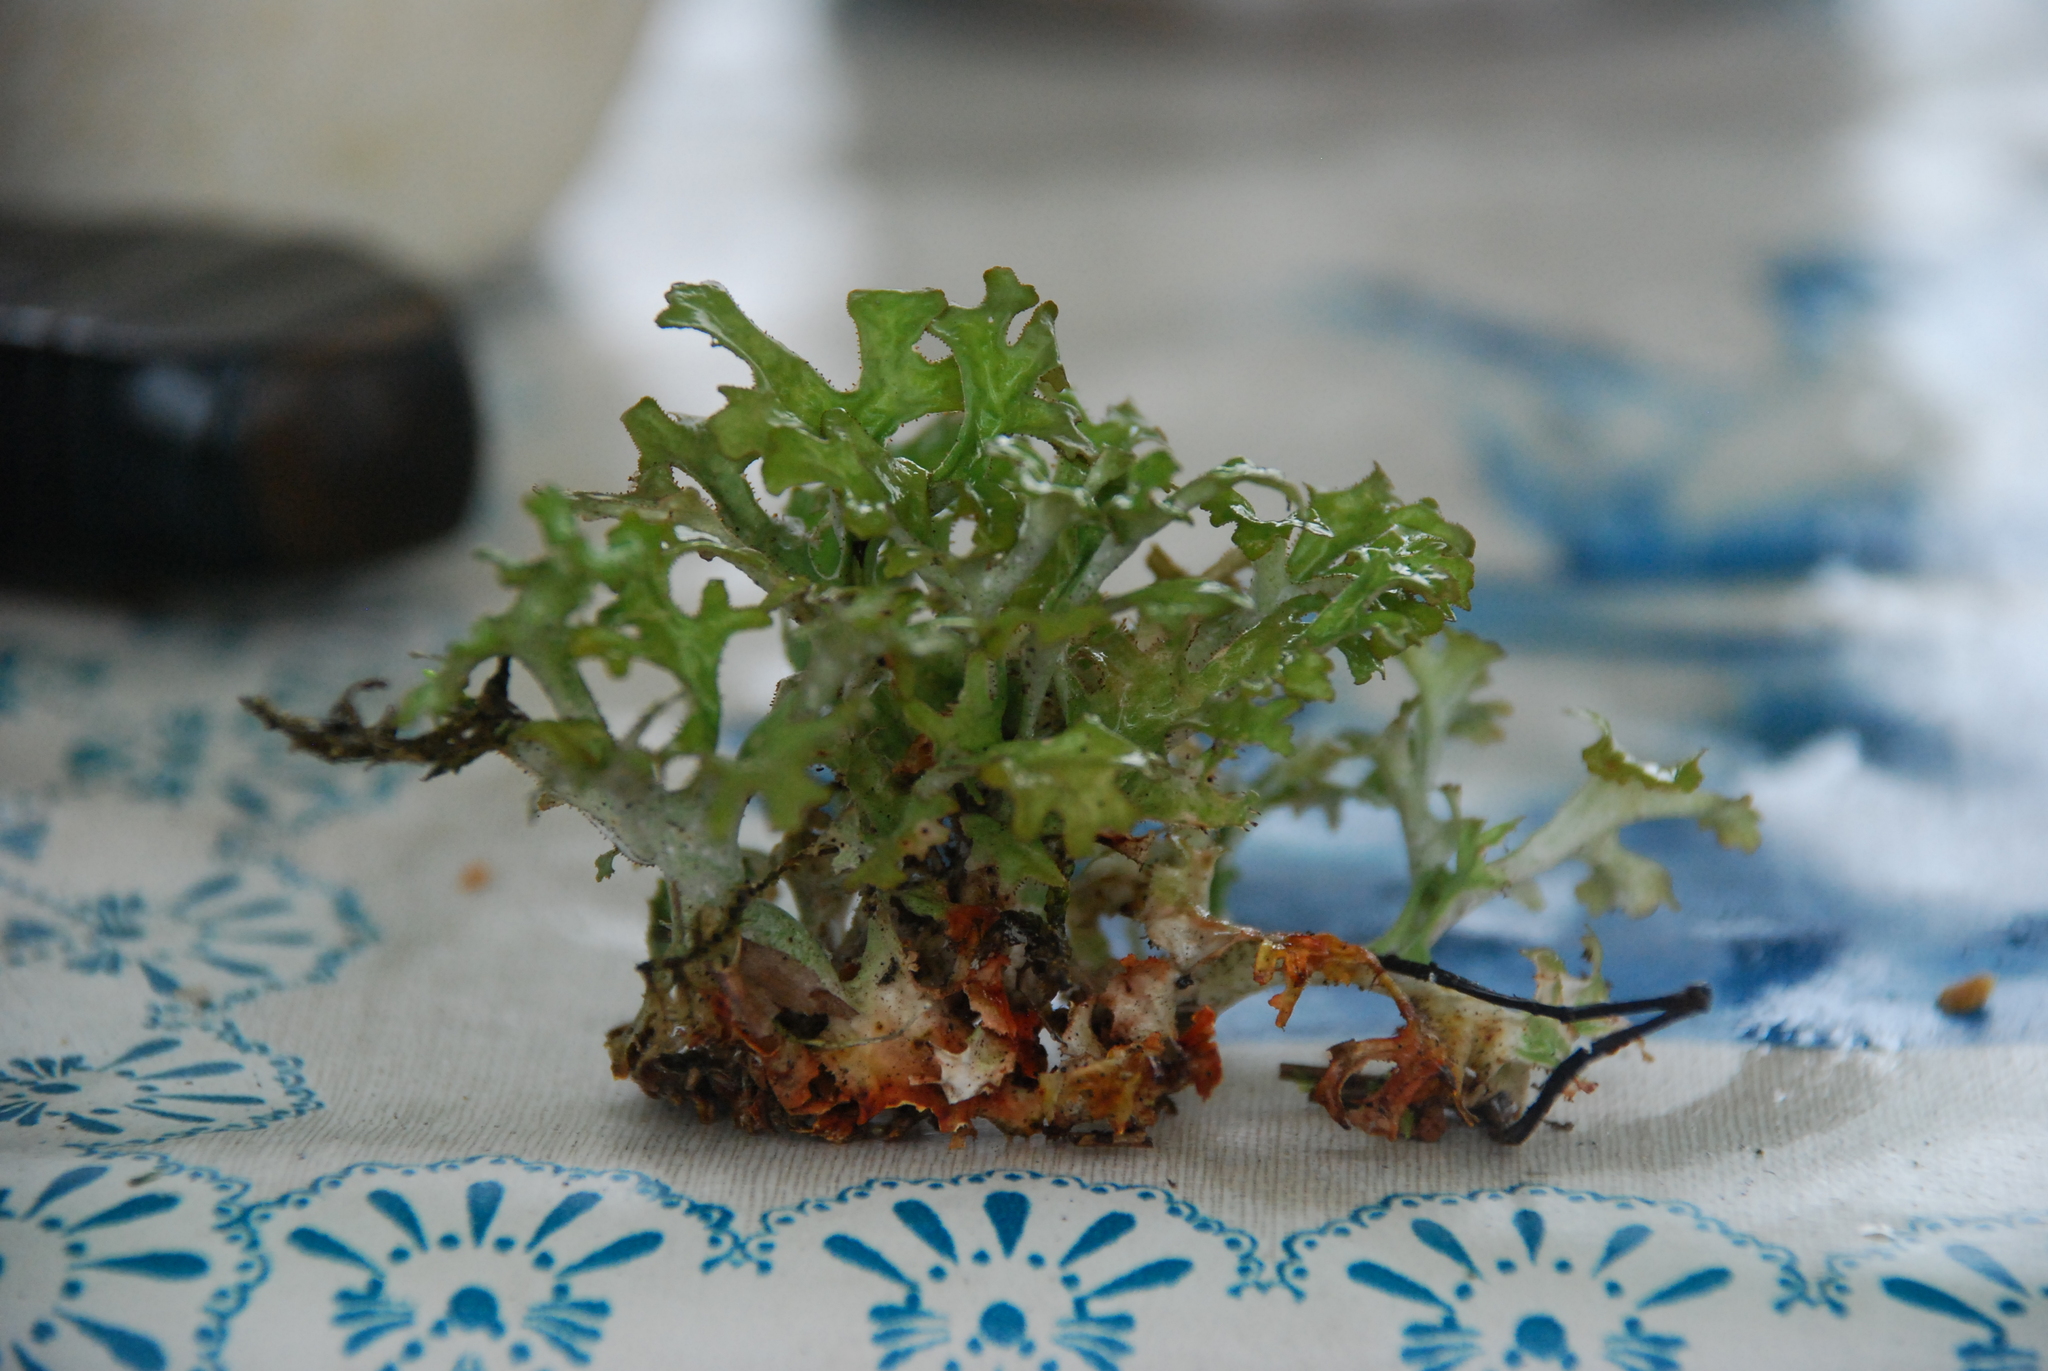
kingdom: Fungi
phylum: Ascomycota
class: Lecanoromycetes
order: Lecanorales
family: Parmeliaceae
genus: Cetraria
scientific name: Cetraria islandica
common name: Iceland lichen
